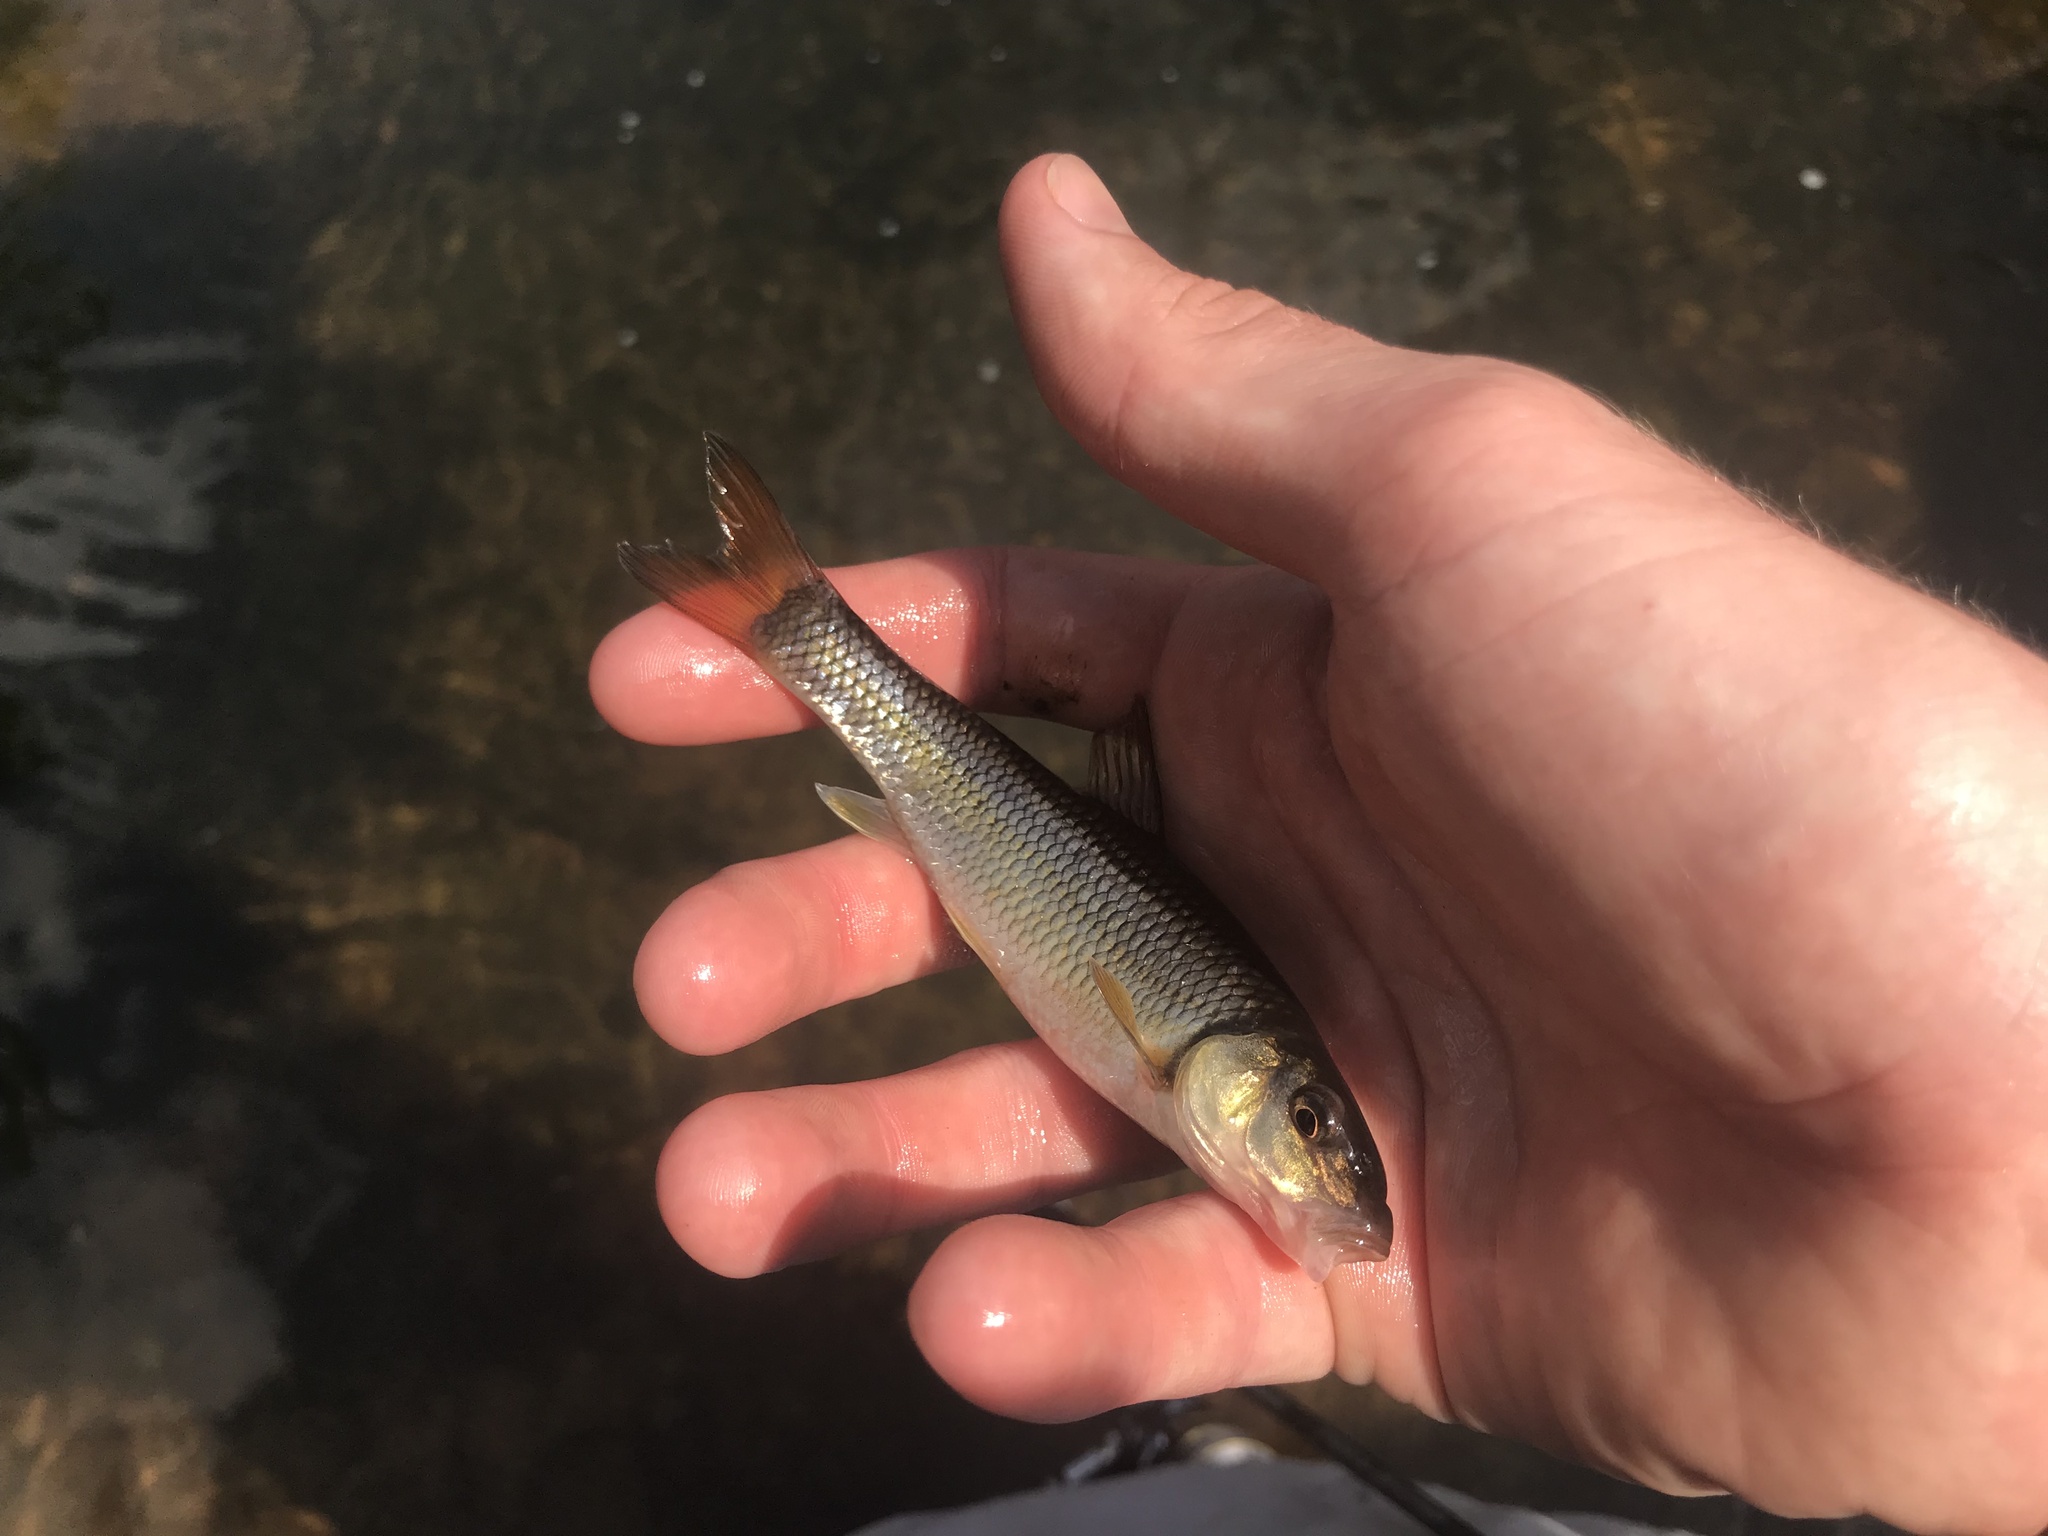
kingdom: Animalia
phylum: Chordata
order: Cypriniformes
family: Cyprinidae
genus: Nocomis
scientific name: Nocomis raneyi
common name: Bull chub
